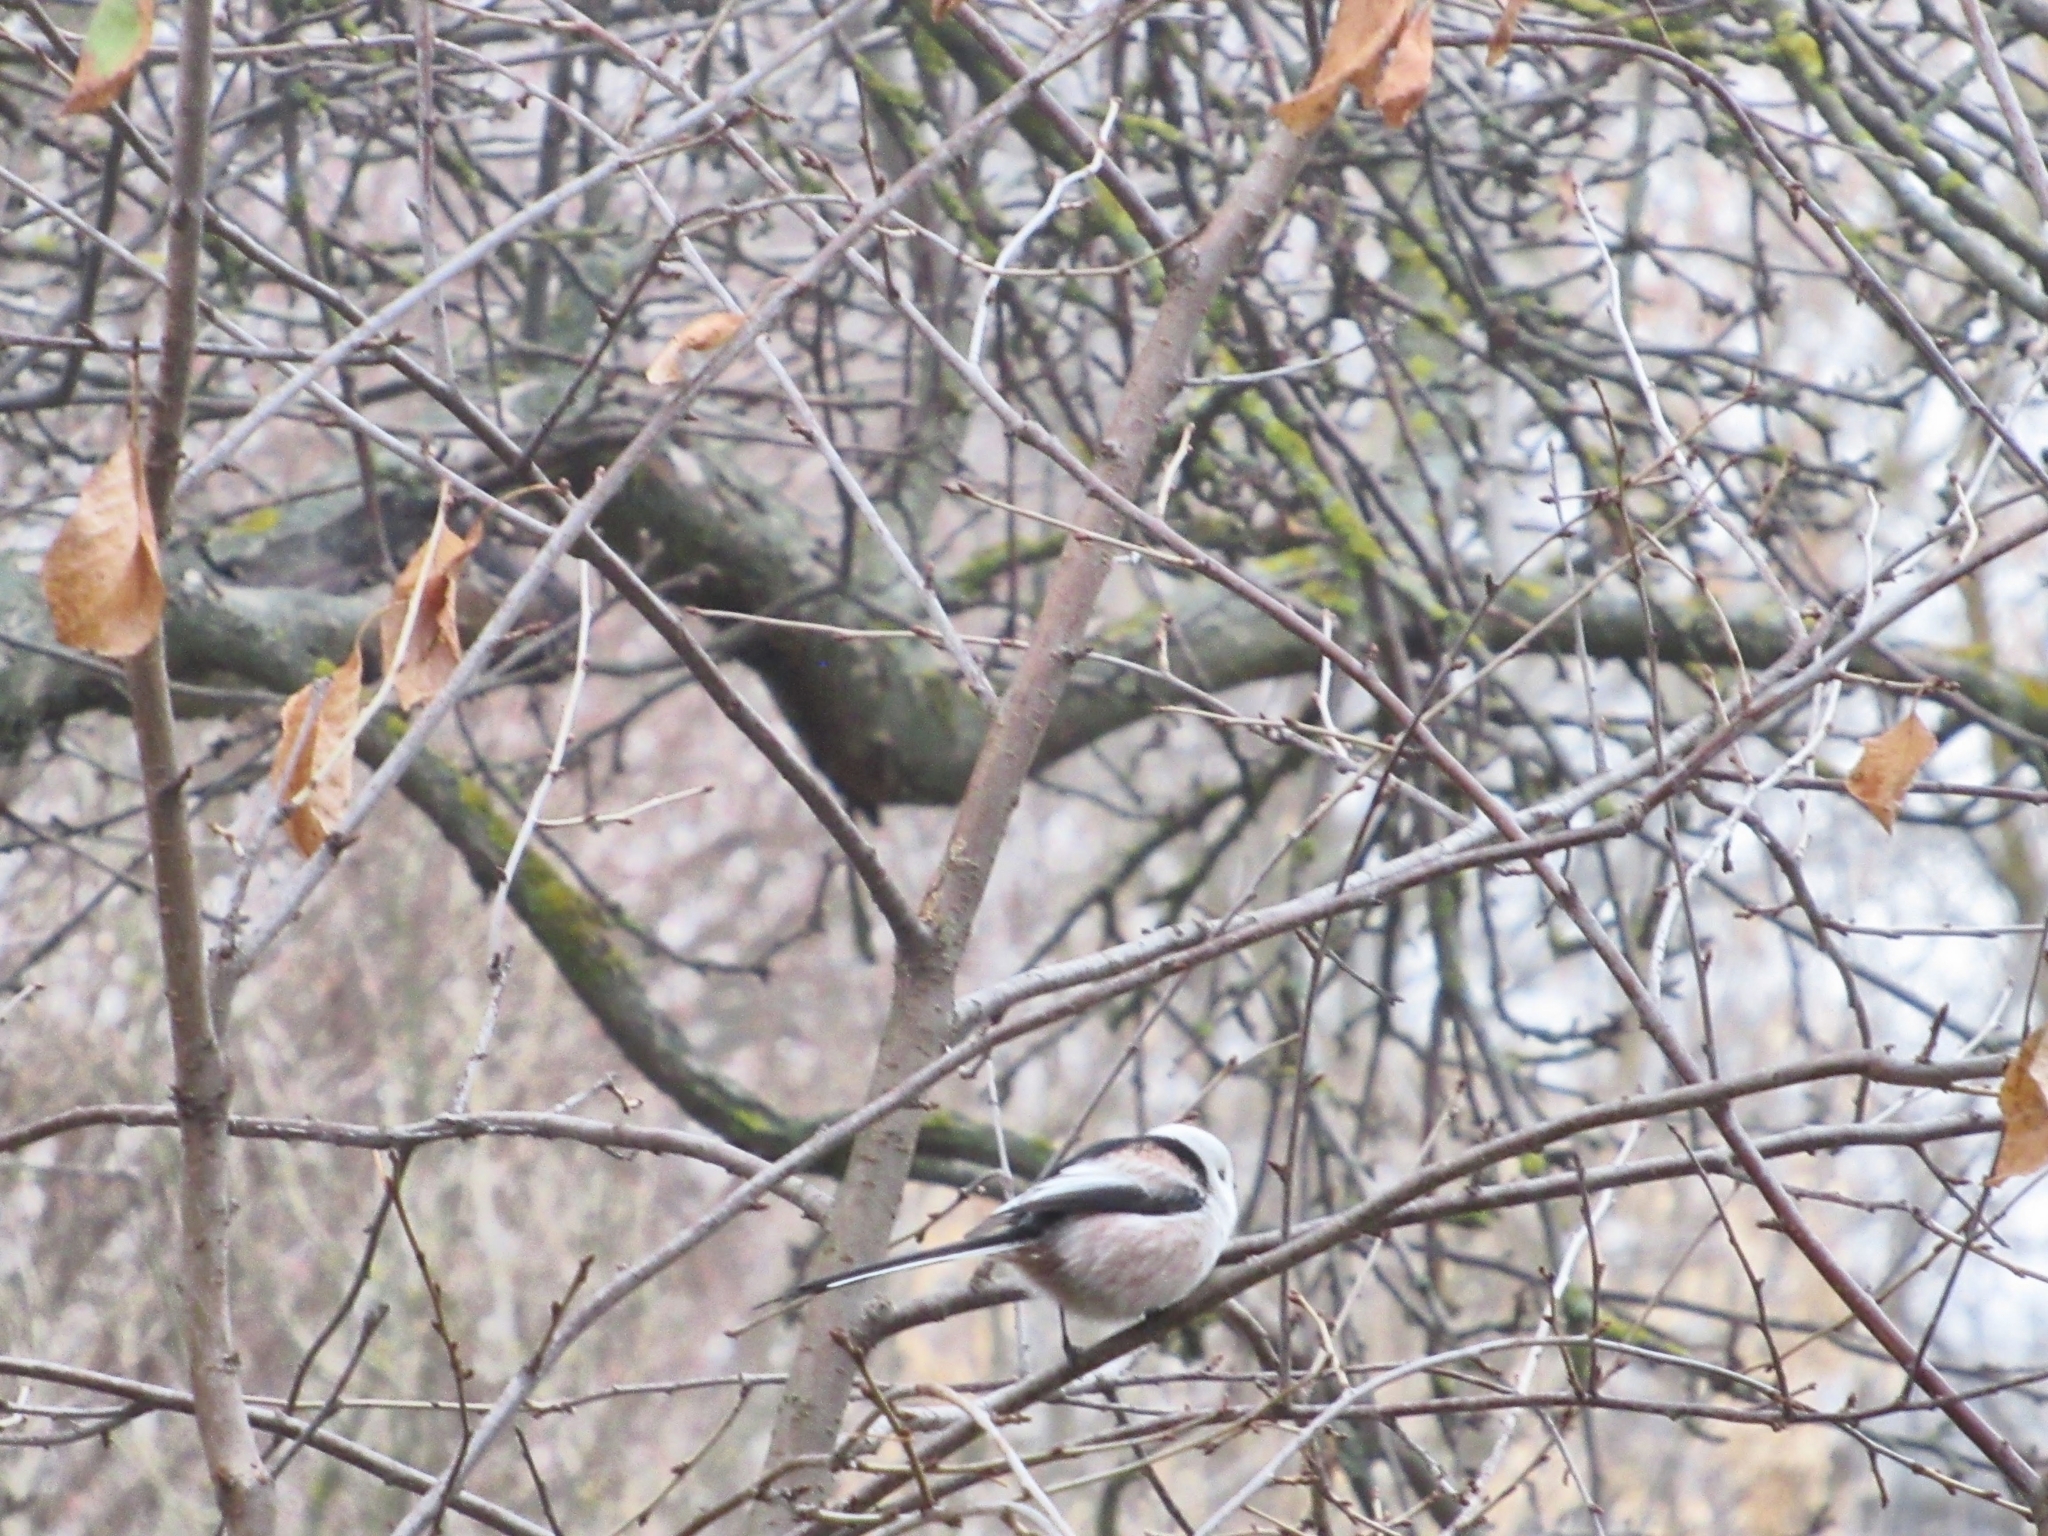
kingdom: Animalia
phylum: Chordata
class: Aves
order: Passeriformes
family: Aegithalidae
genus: Aegithalos
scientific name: Aegithalos caudatus
